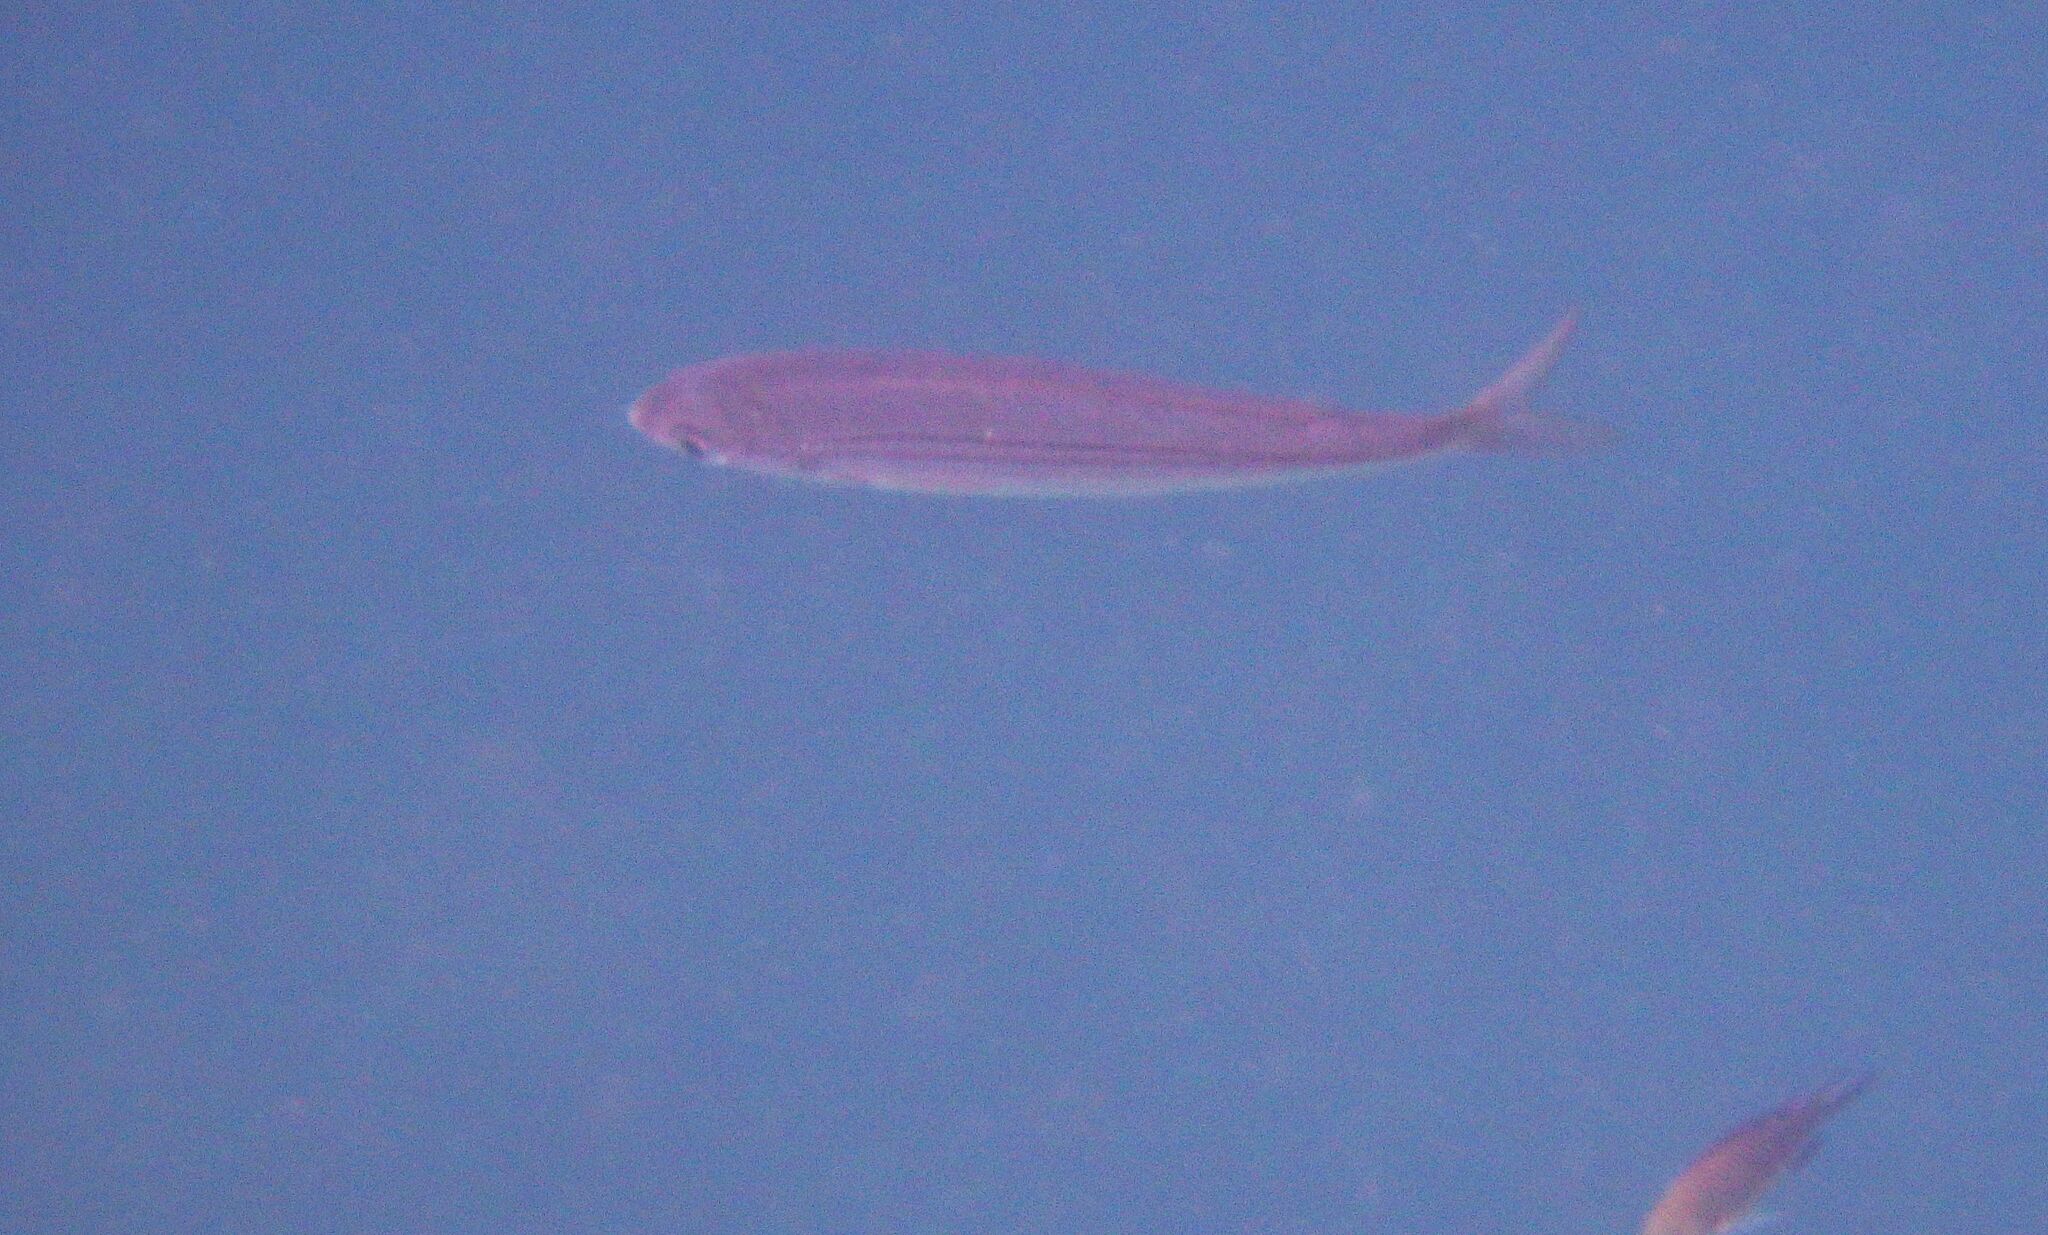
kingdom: Animalia
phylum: Chordata
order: Perciformes
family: Sparidae
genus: Boops
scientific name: Boops boops
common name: Bogue
